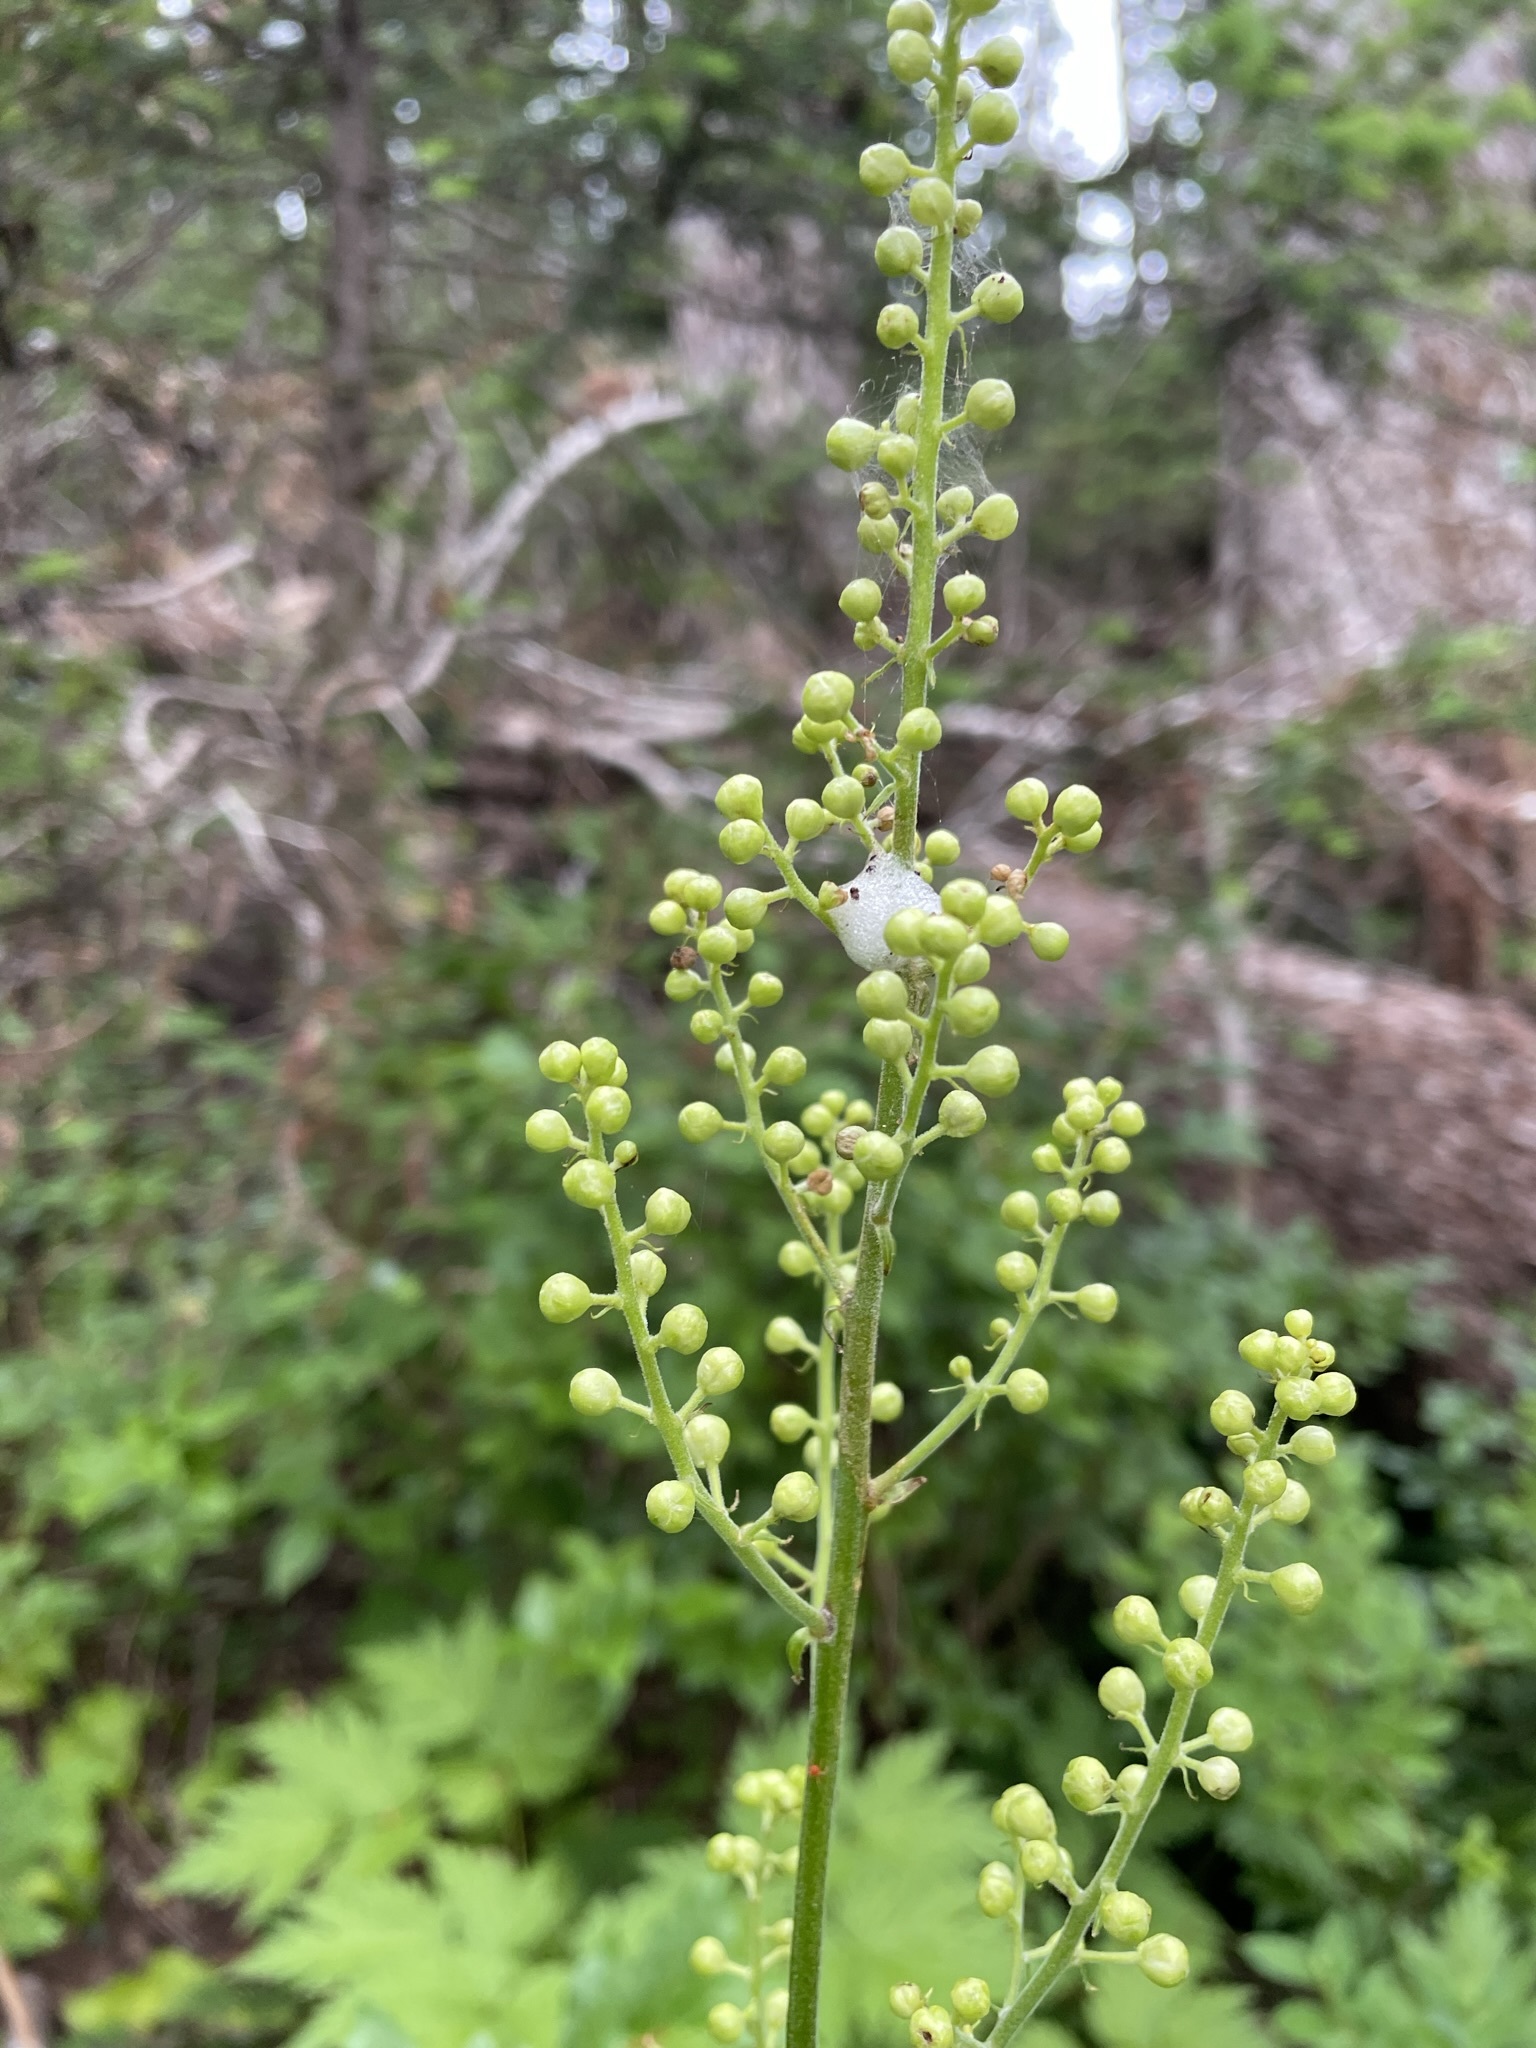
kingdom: Plantae
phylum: Tracheophyta
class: Magnoliopsida
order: Ranunculales
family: Ranunculaceae
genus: Actaea
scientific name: Actaea laciniata
